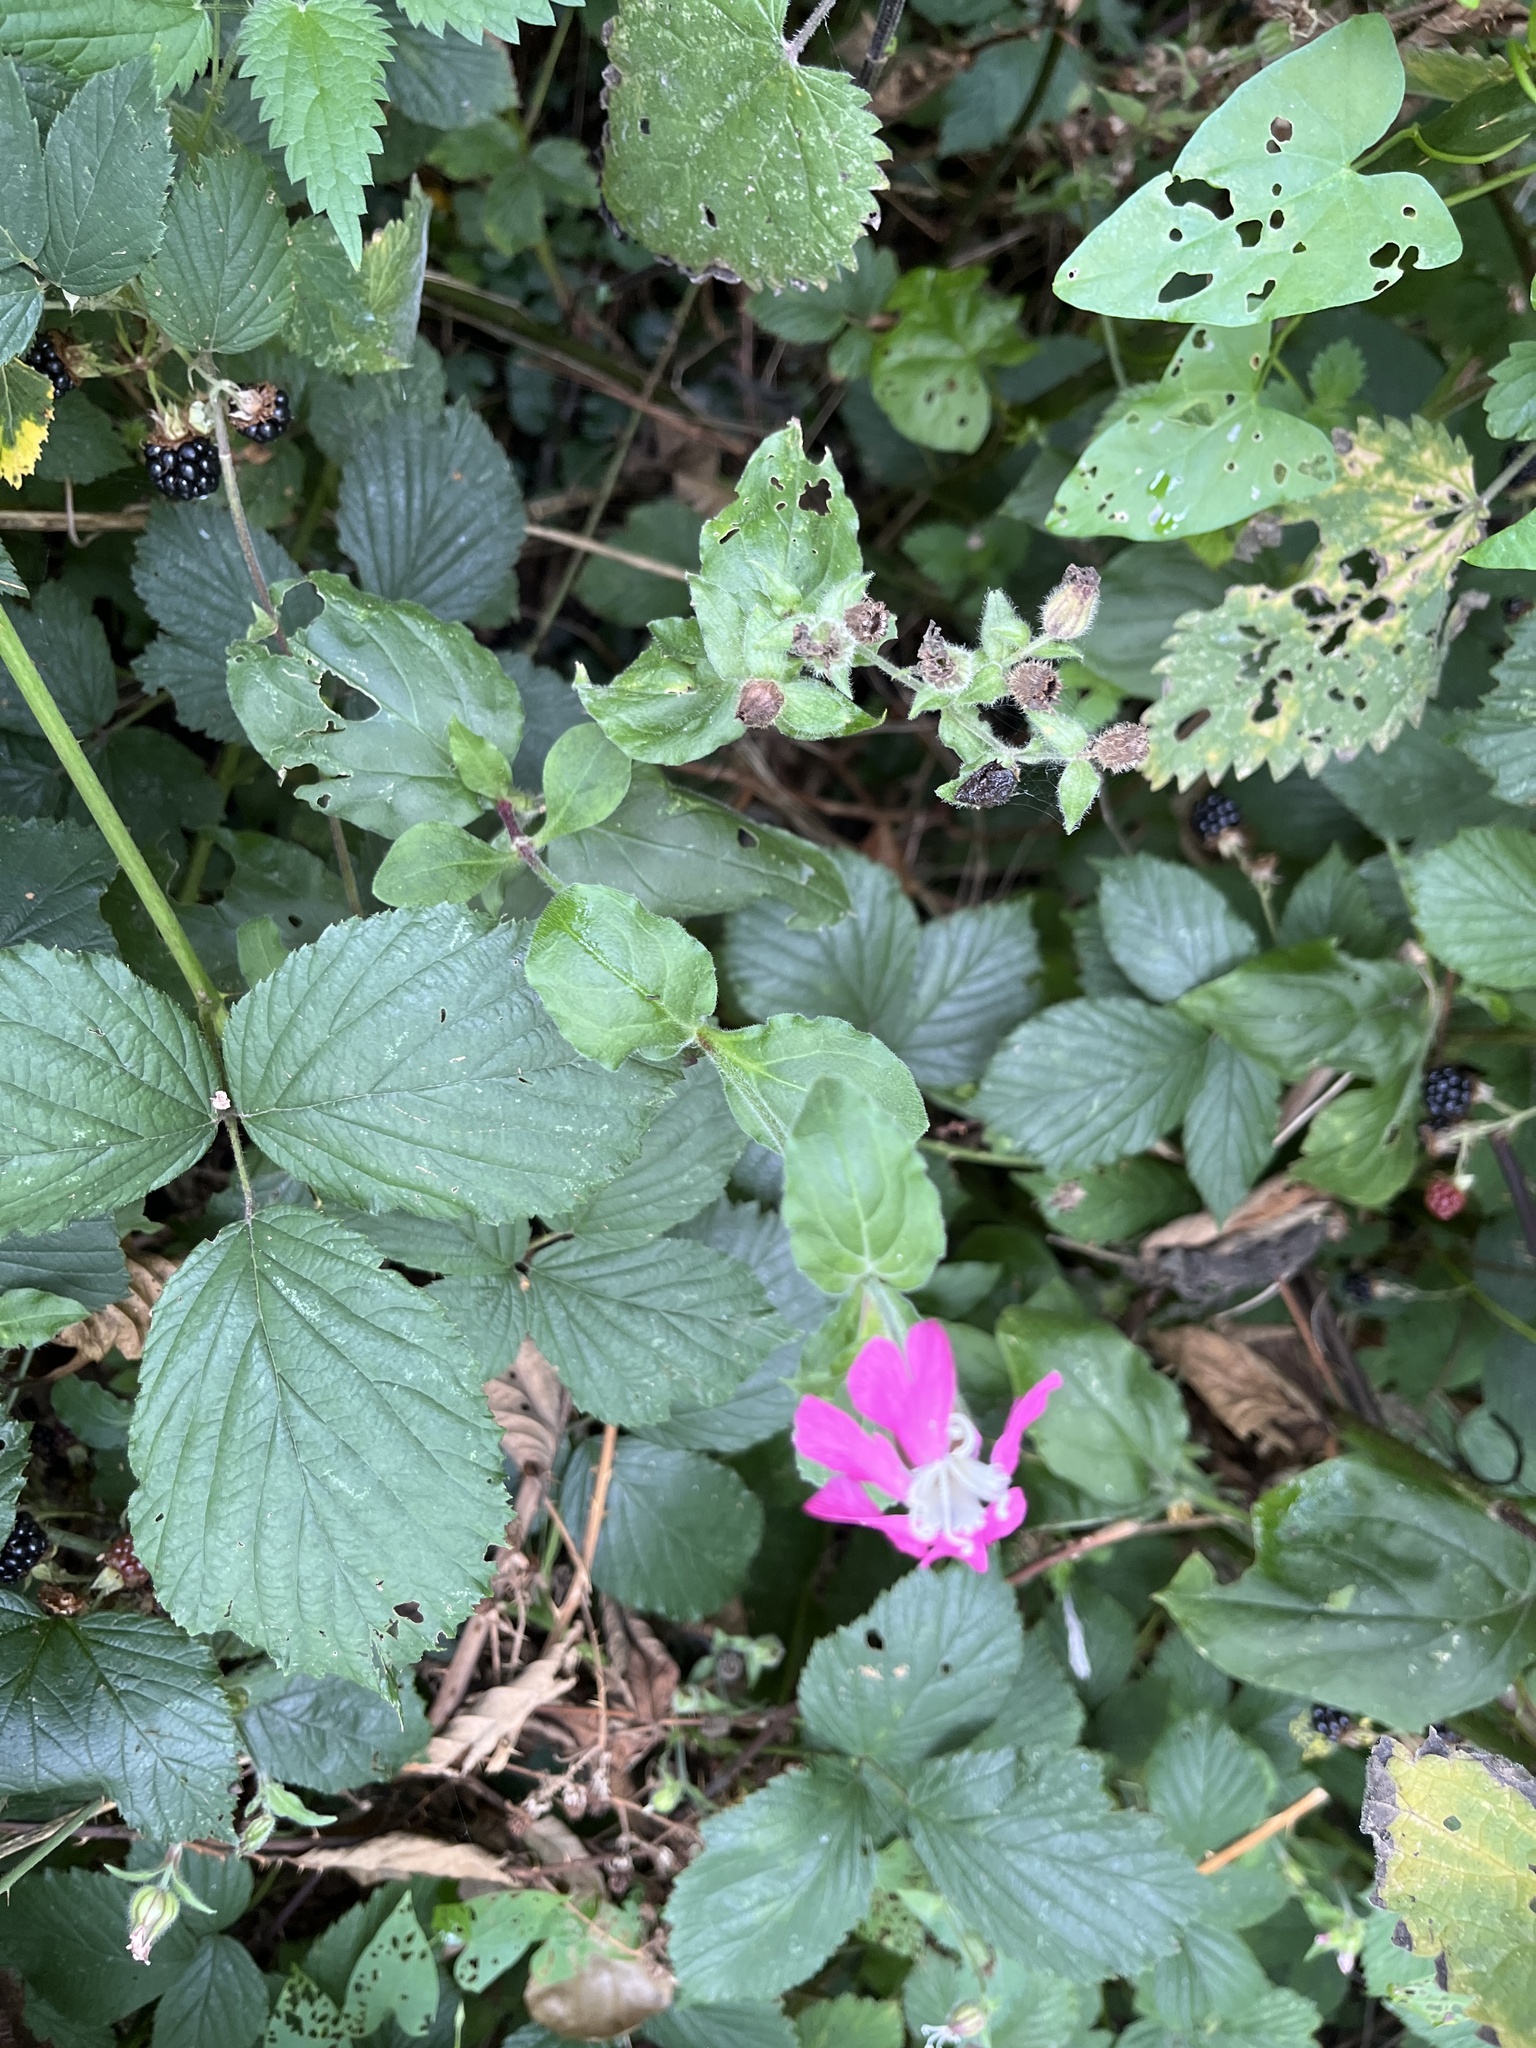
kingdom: Plantae
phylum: Tracheophyta
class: Magnoliopsida
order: Caryophyllales
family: Caryophyllaceae
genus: Silene
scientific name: Silene dioica
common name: Red campion
